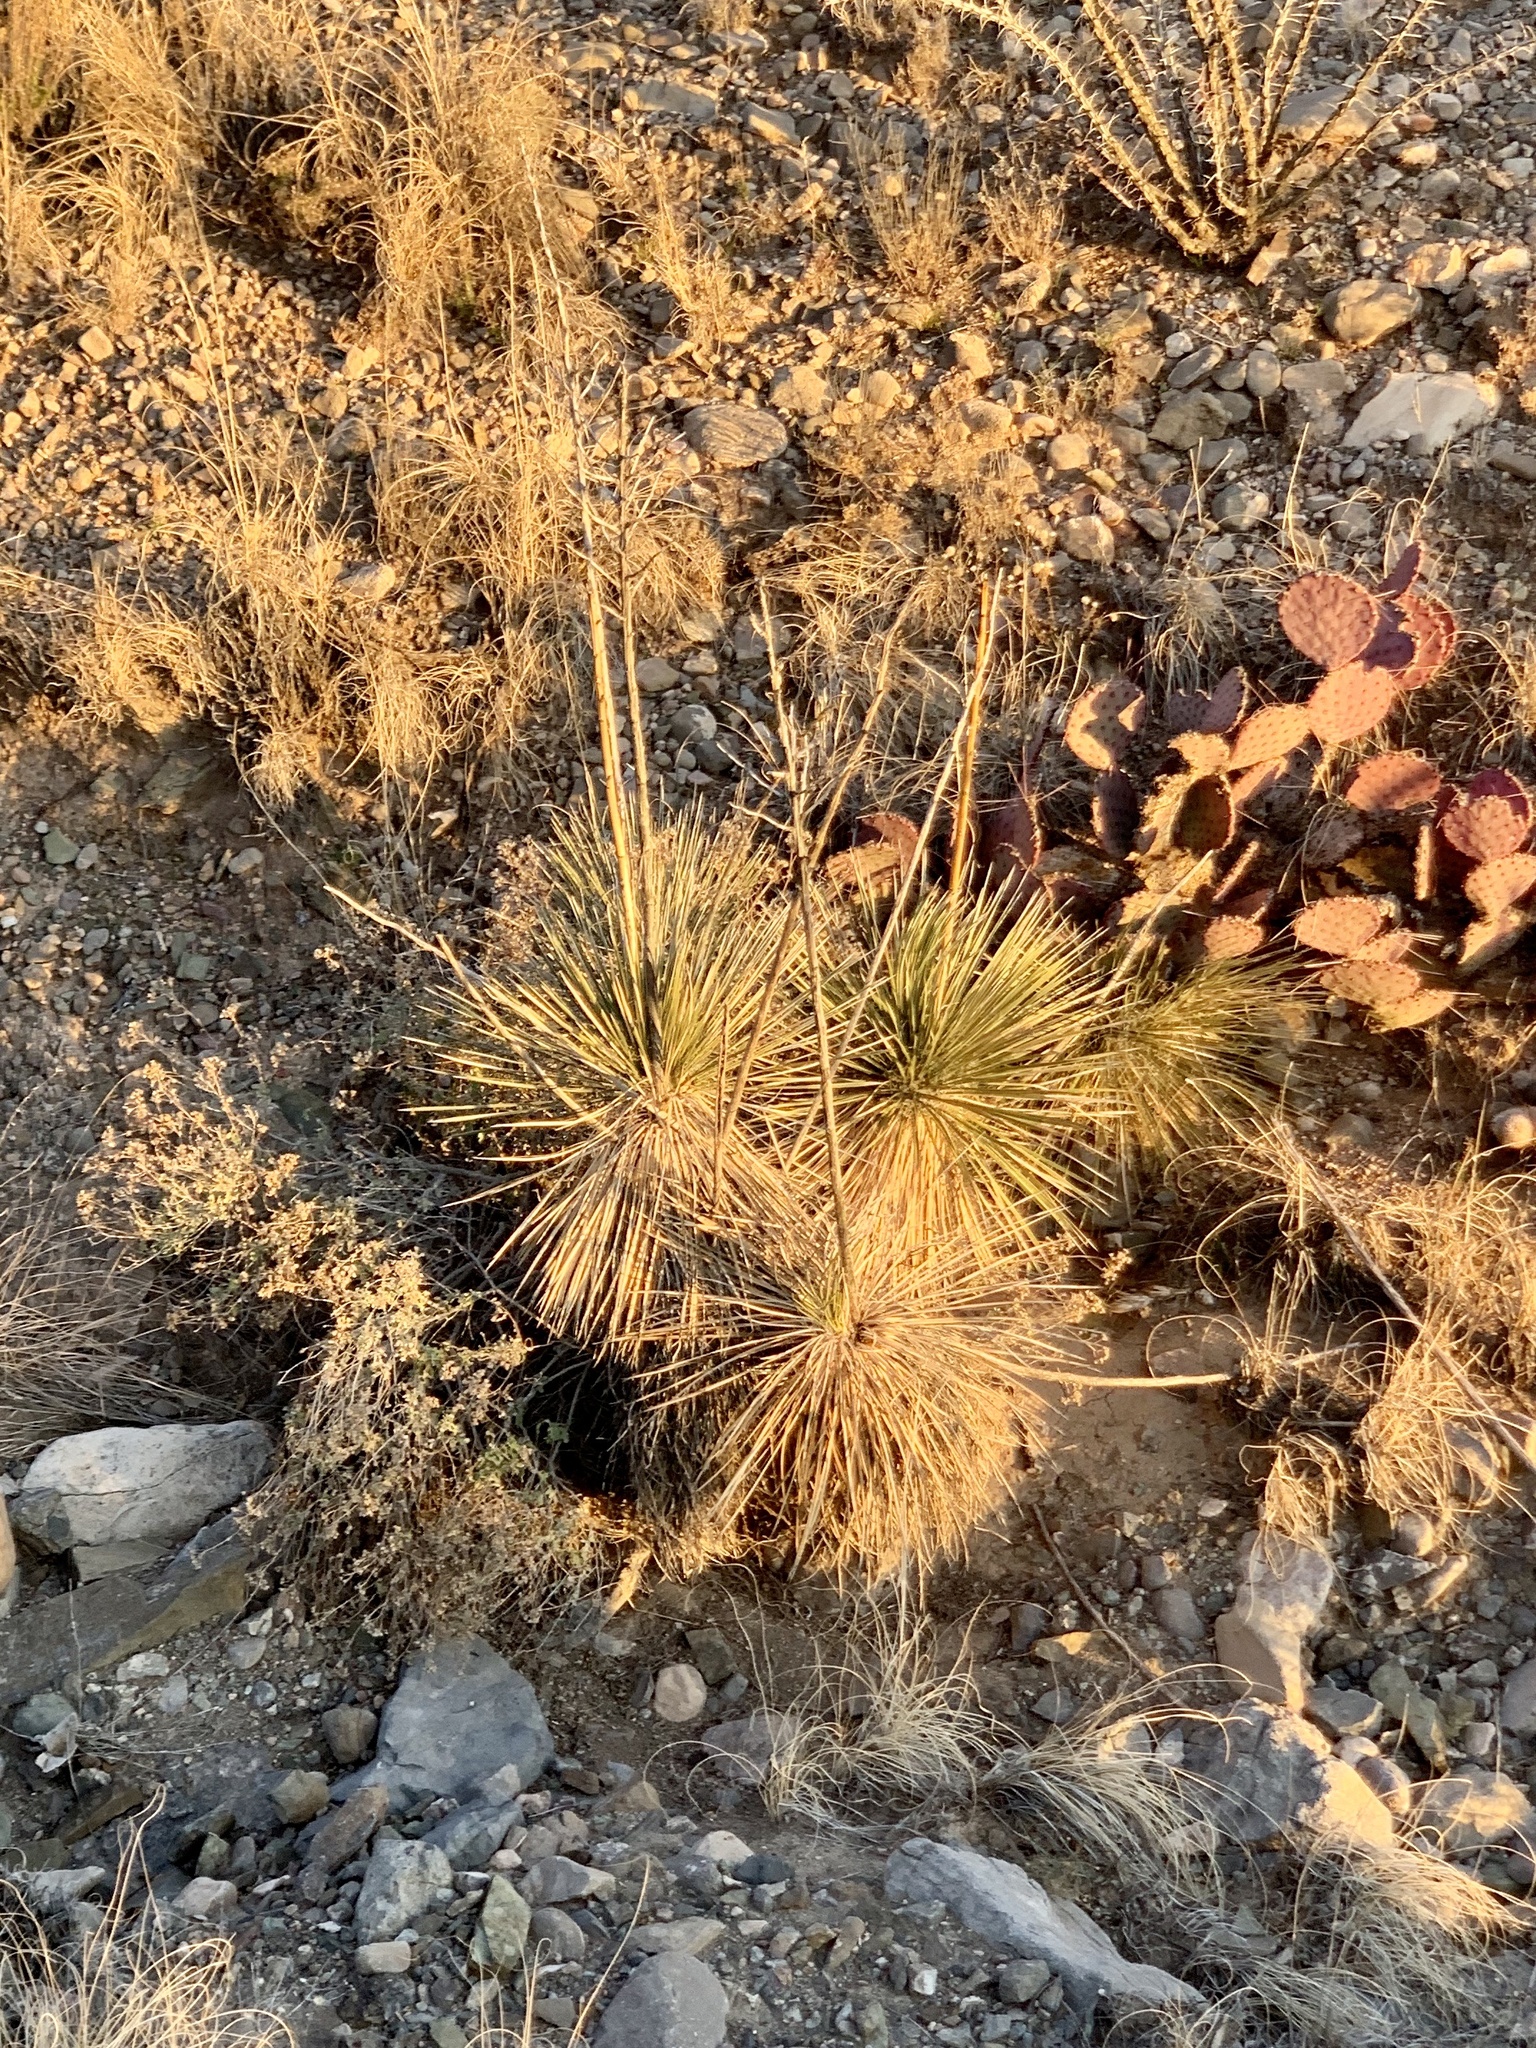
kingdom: Plantae
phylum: Tracheophyta
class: Liliopsida
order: Asparagales
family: Asparagaceae
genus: Yucca
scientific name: Yucca elata
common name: Palmella
